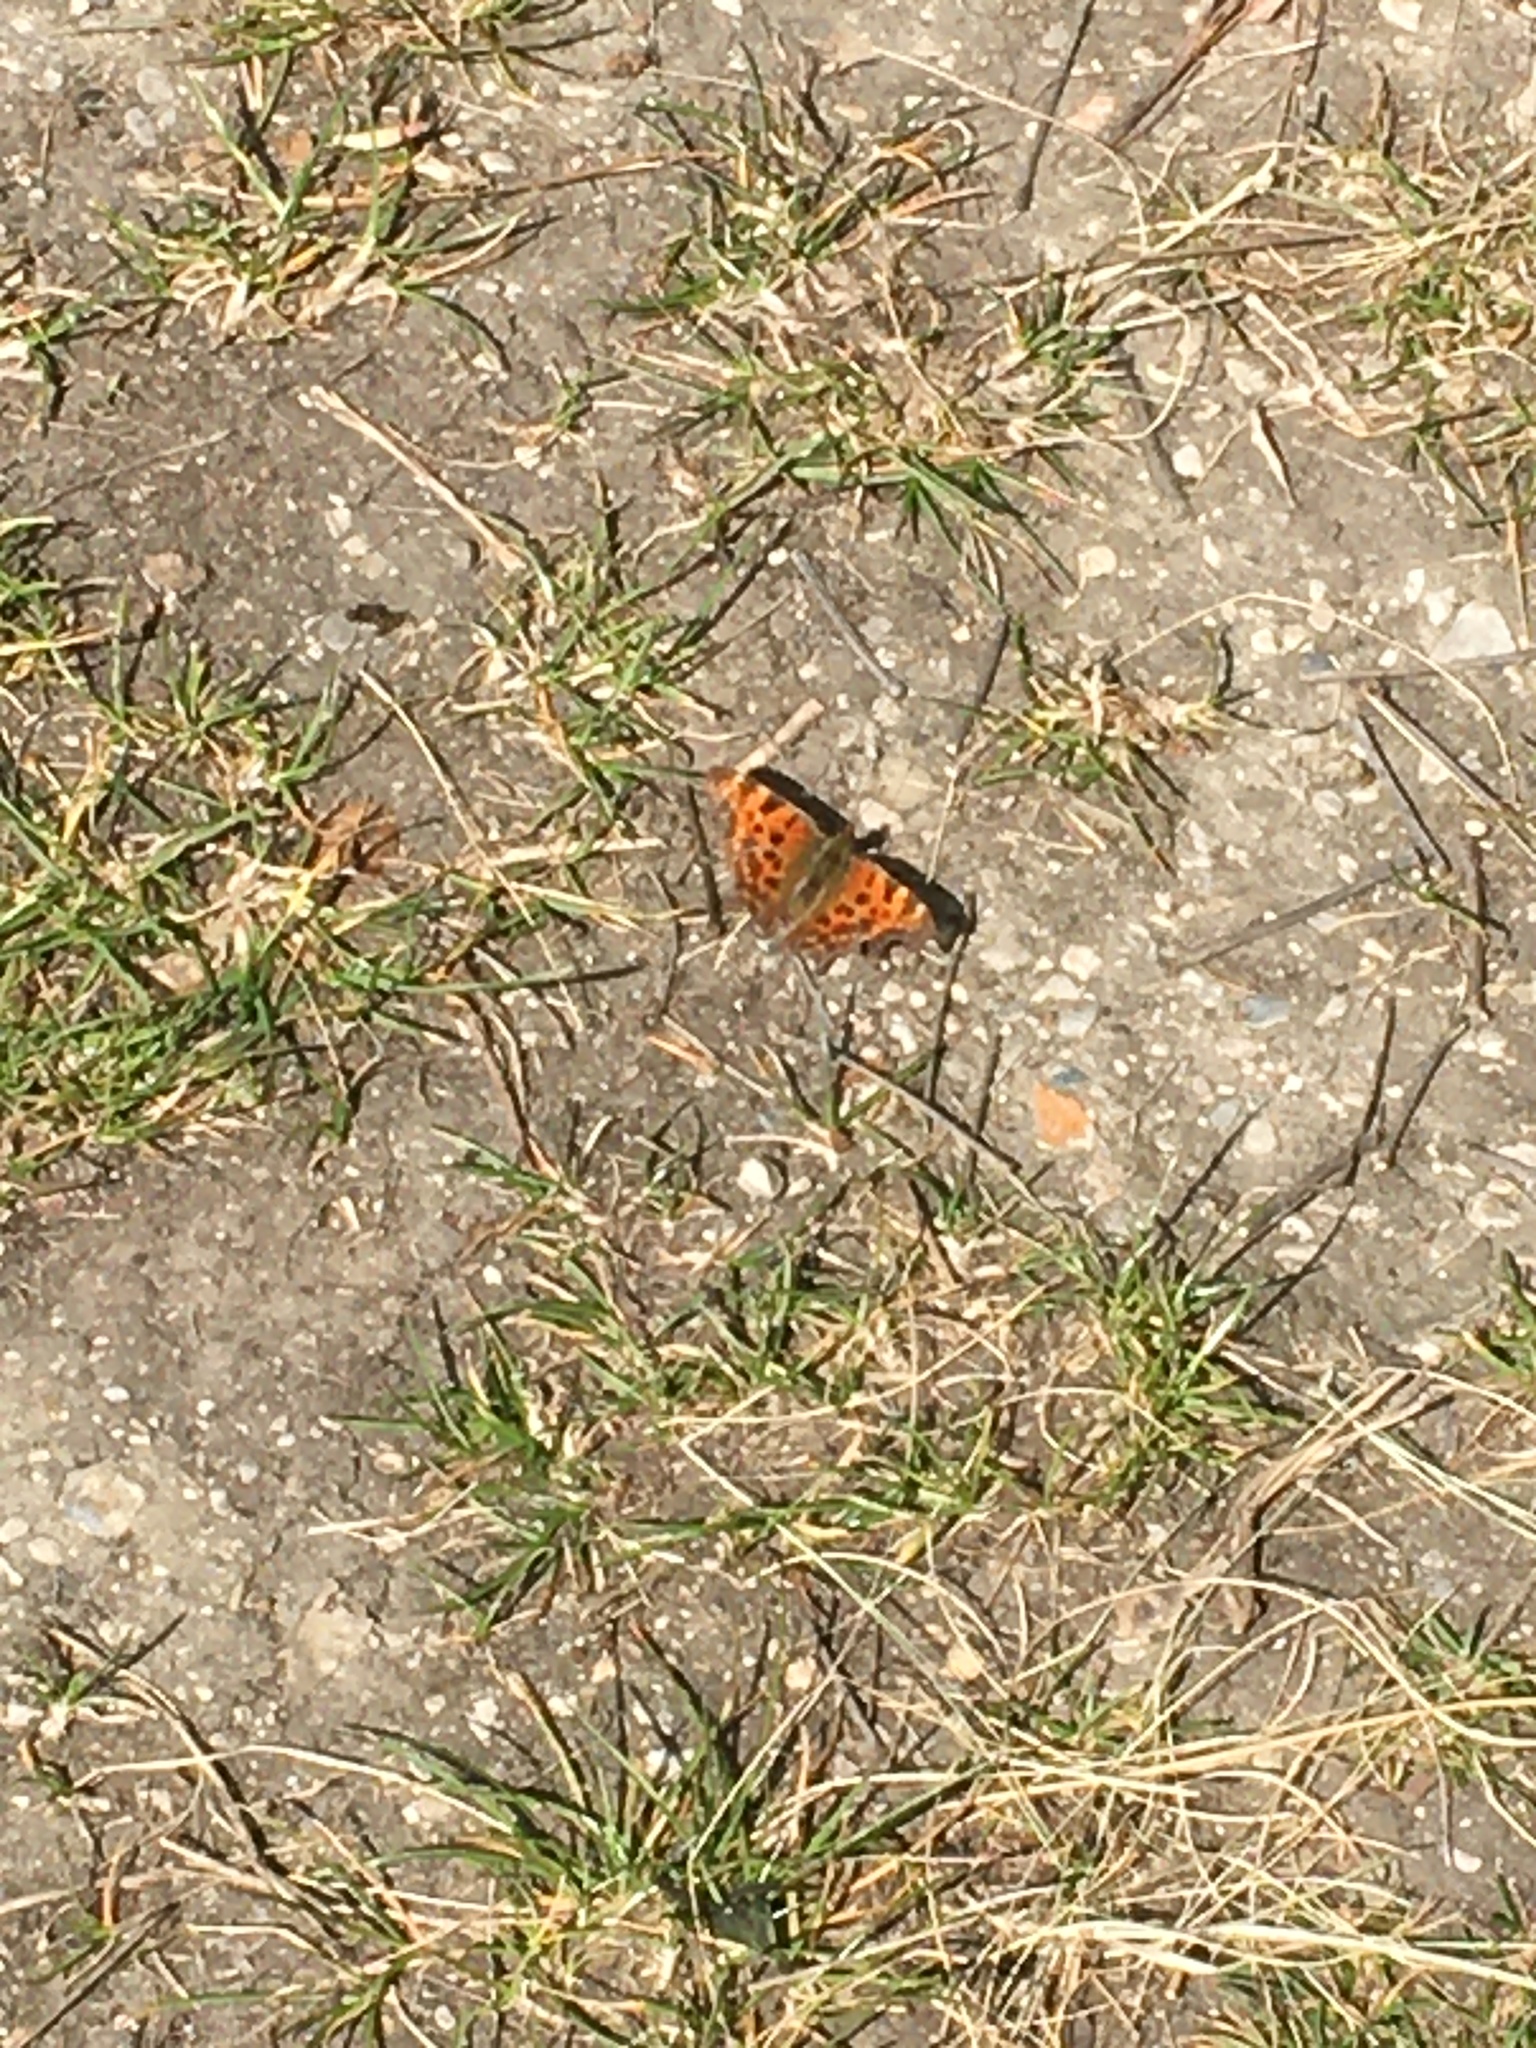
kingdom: Animalia
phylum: Arthropoda
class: Insecta
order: Lepidoptera
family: Nymphalidae
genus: Polygonia
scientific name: Polygonia c-album
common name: Comma
